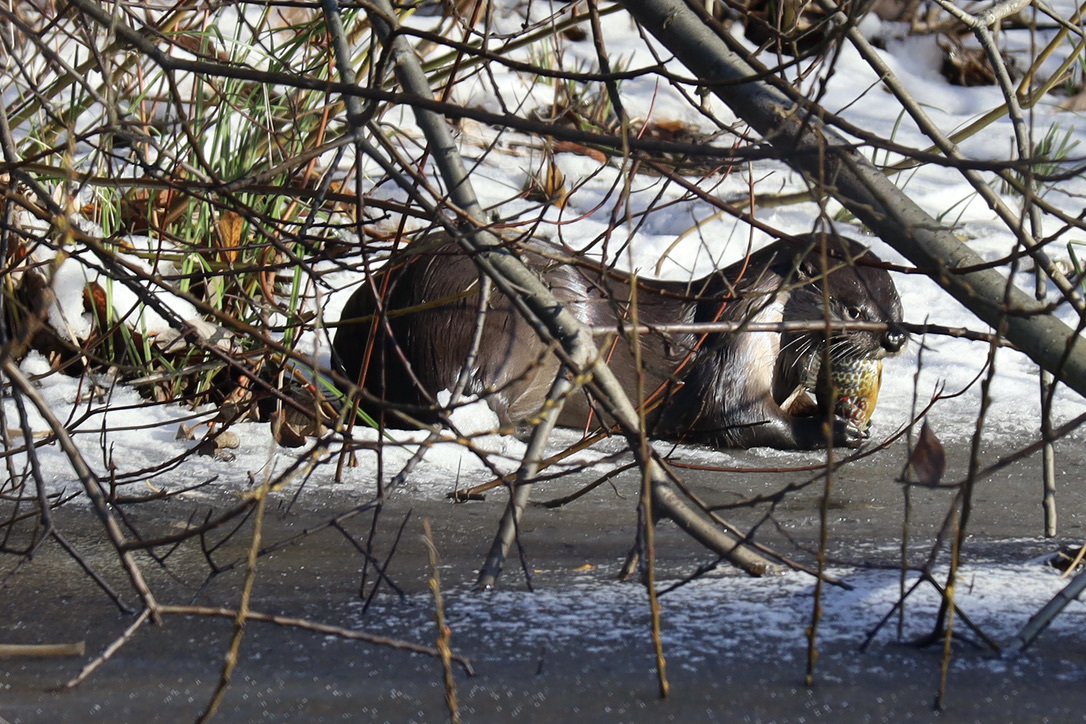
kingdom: Animalia
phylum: Chordata
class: Mammalia
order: Carnivora
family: Mustelidae
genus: Lontra
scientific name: Lontra canadensis
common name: North american river otter
